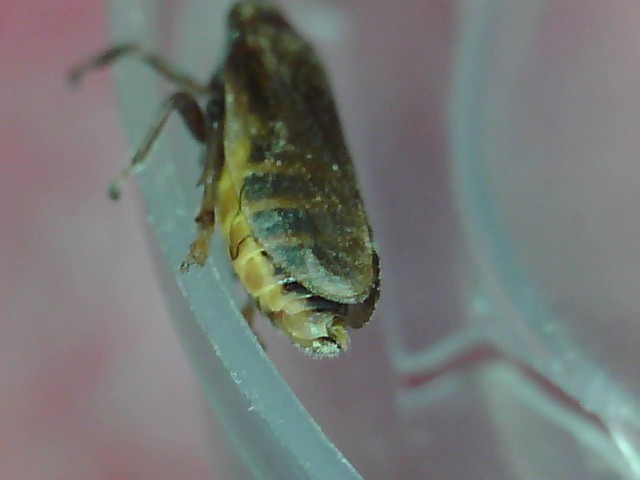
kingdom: Animalia
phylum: Arthropoda
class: Insecta
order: Hemiptera
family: Aphrophoridae
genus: Philaenus
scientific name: Philaenus spumarius
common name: Meadow spittlebug
